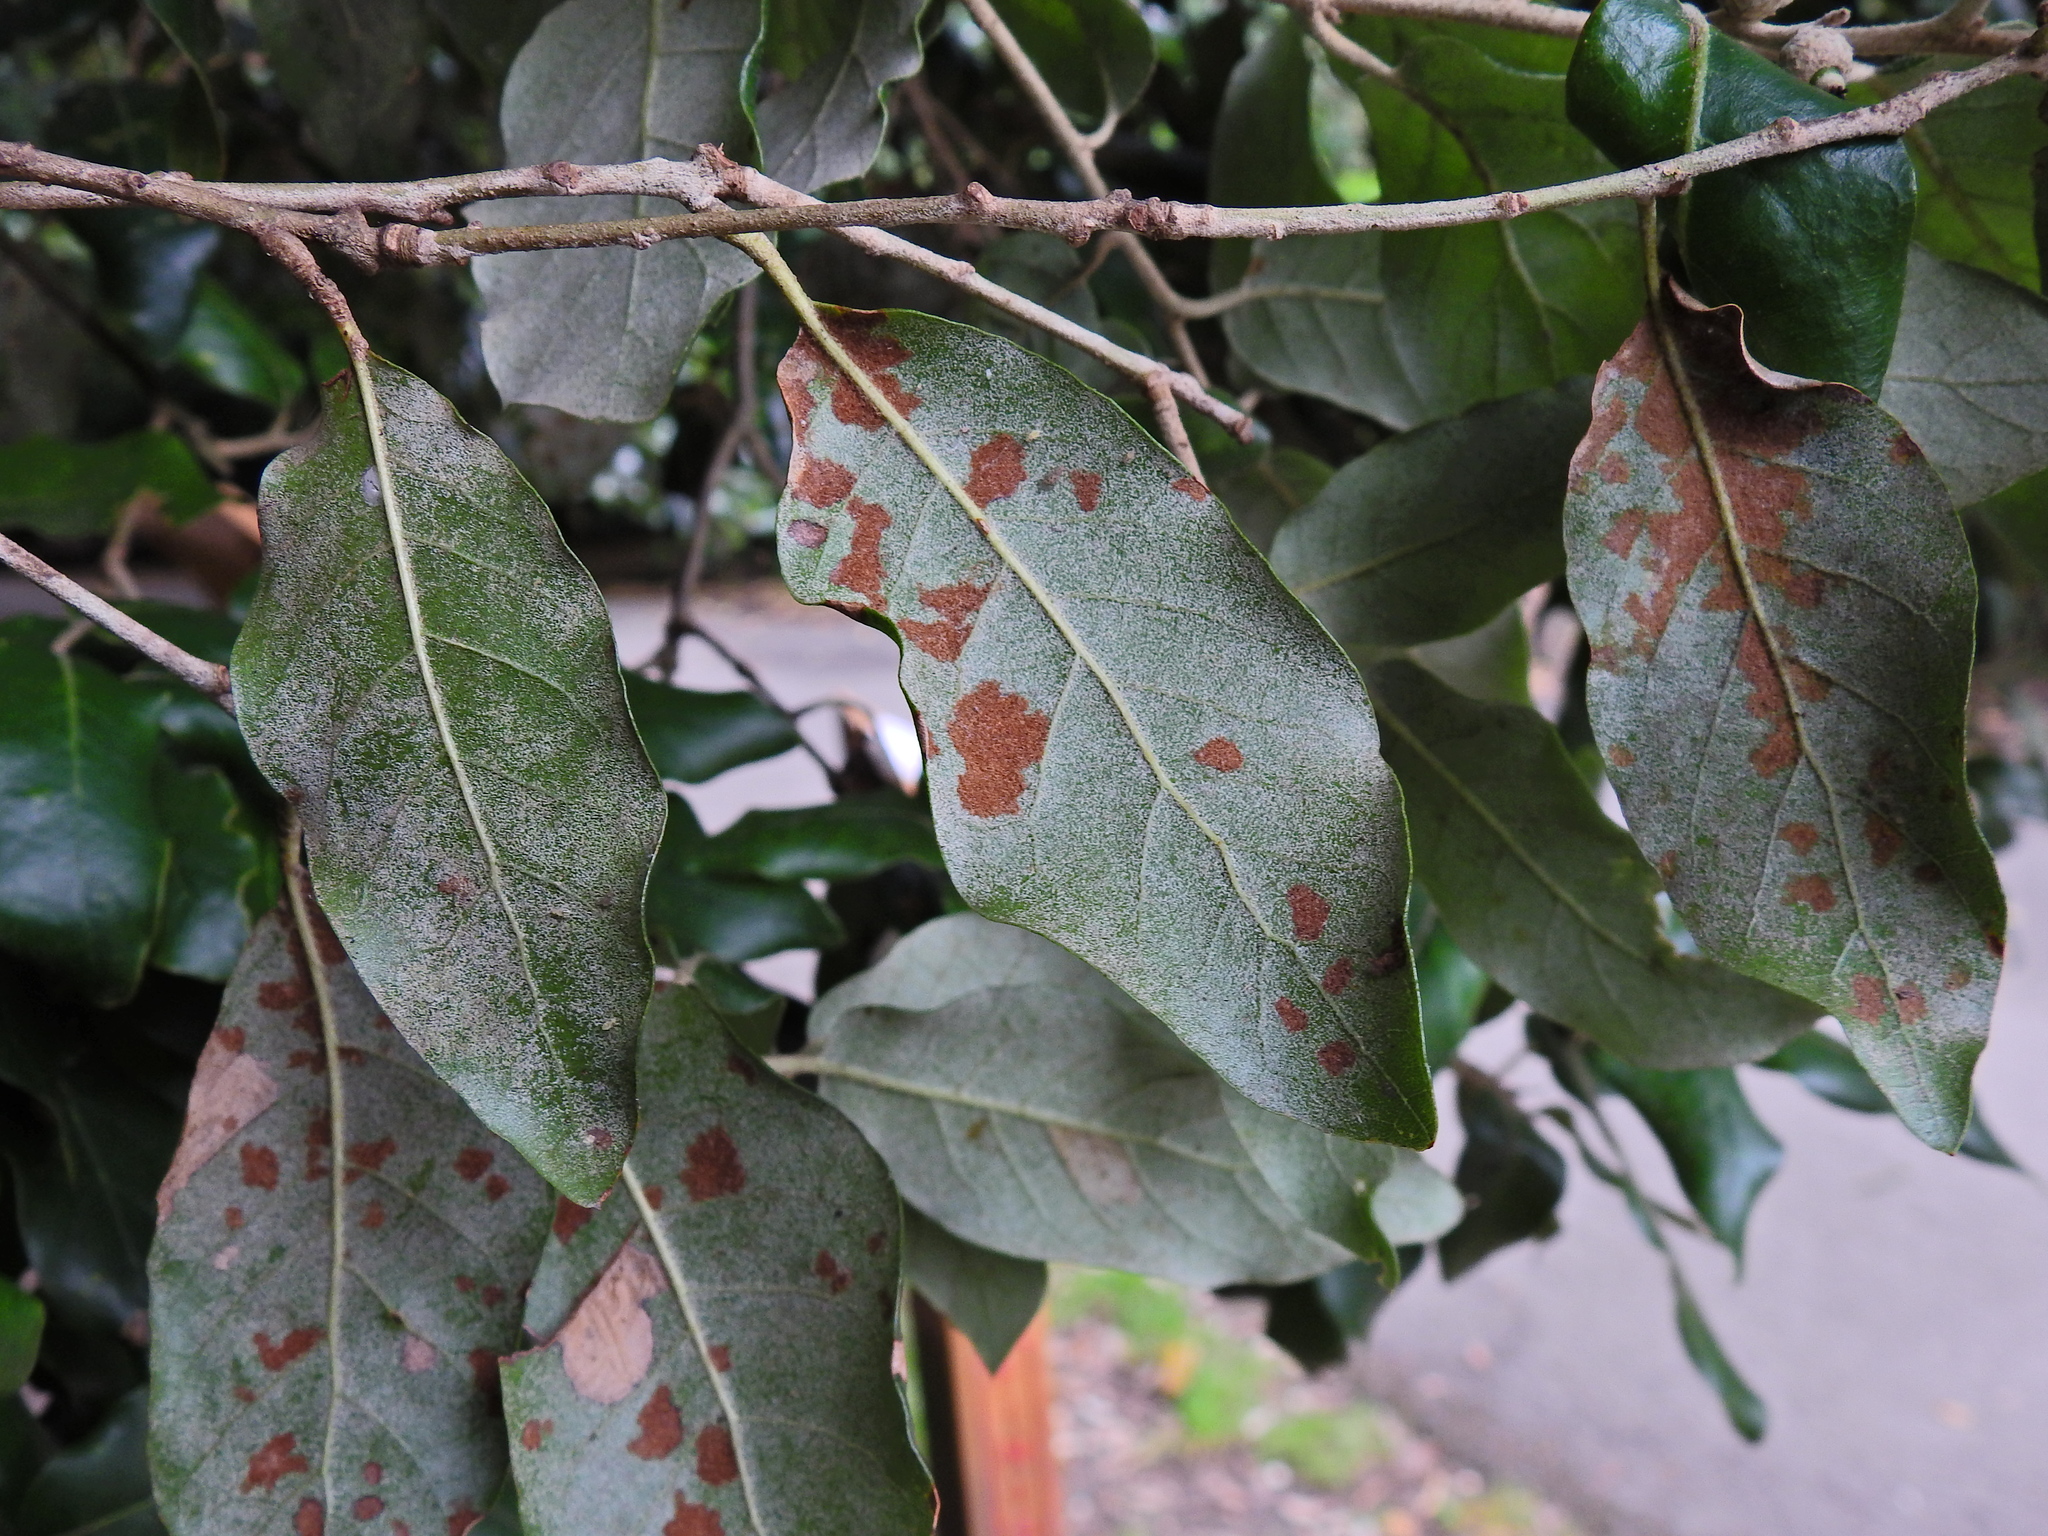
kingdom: Animalia
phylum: Arthropoda
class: Arachnida
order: Trombidiformes
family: Eriophyidae
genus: Aceria
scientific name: Aceria ilicis
